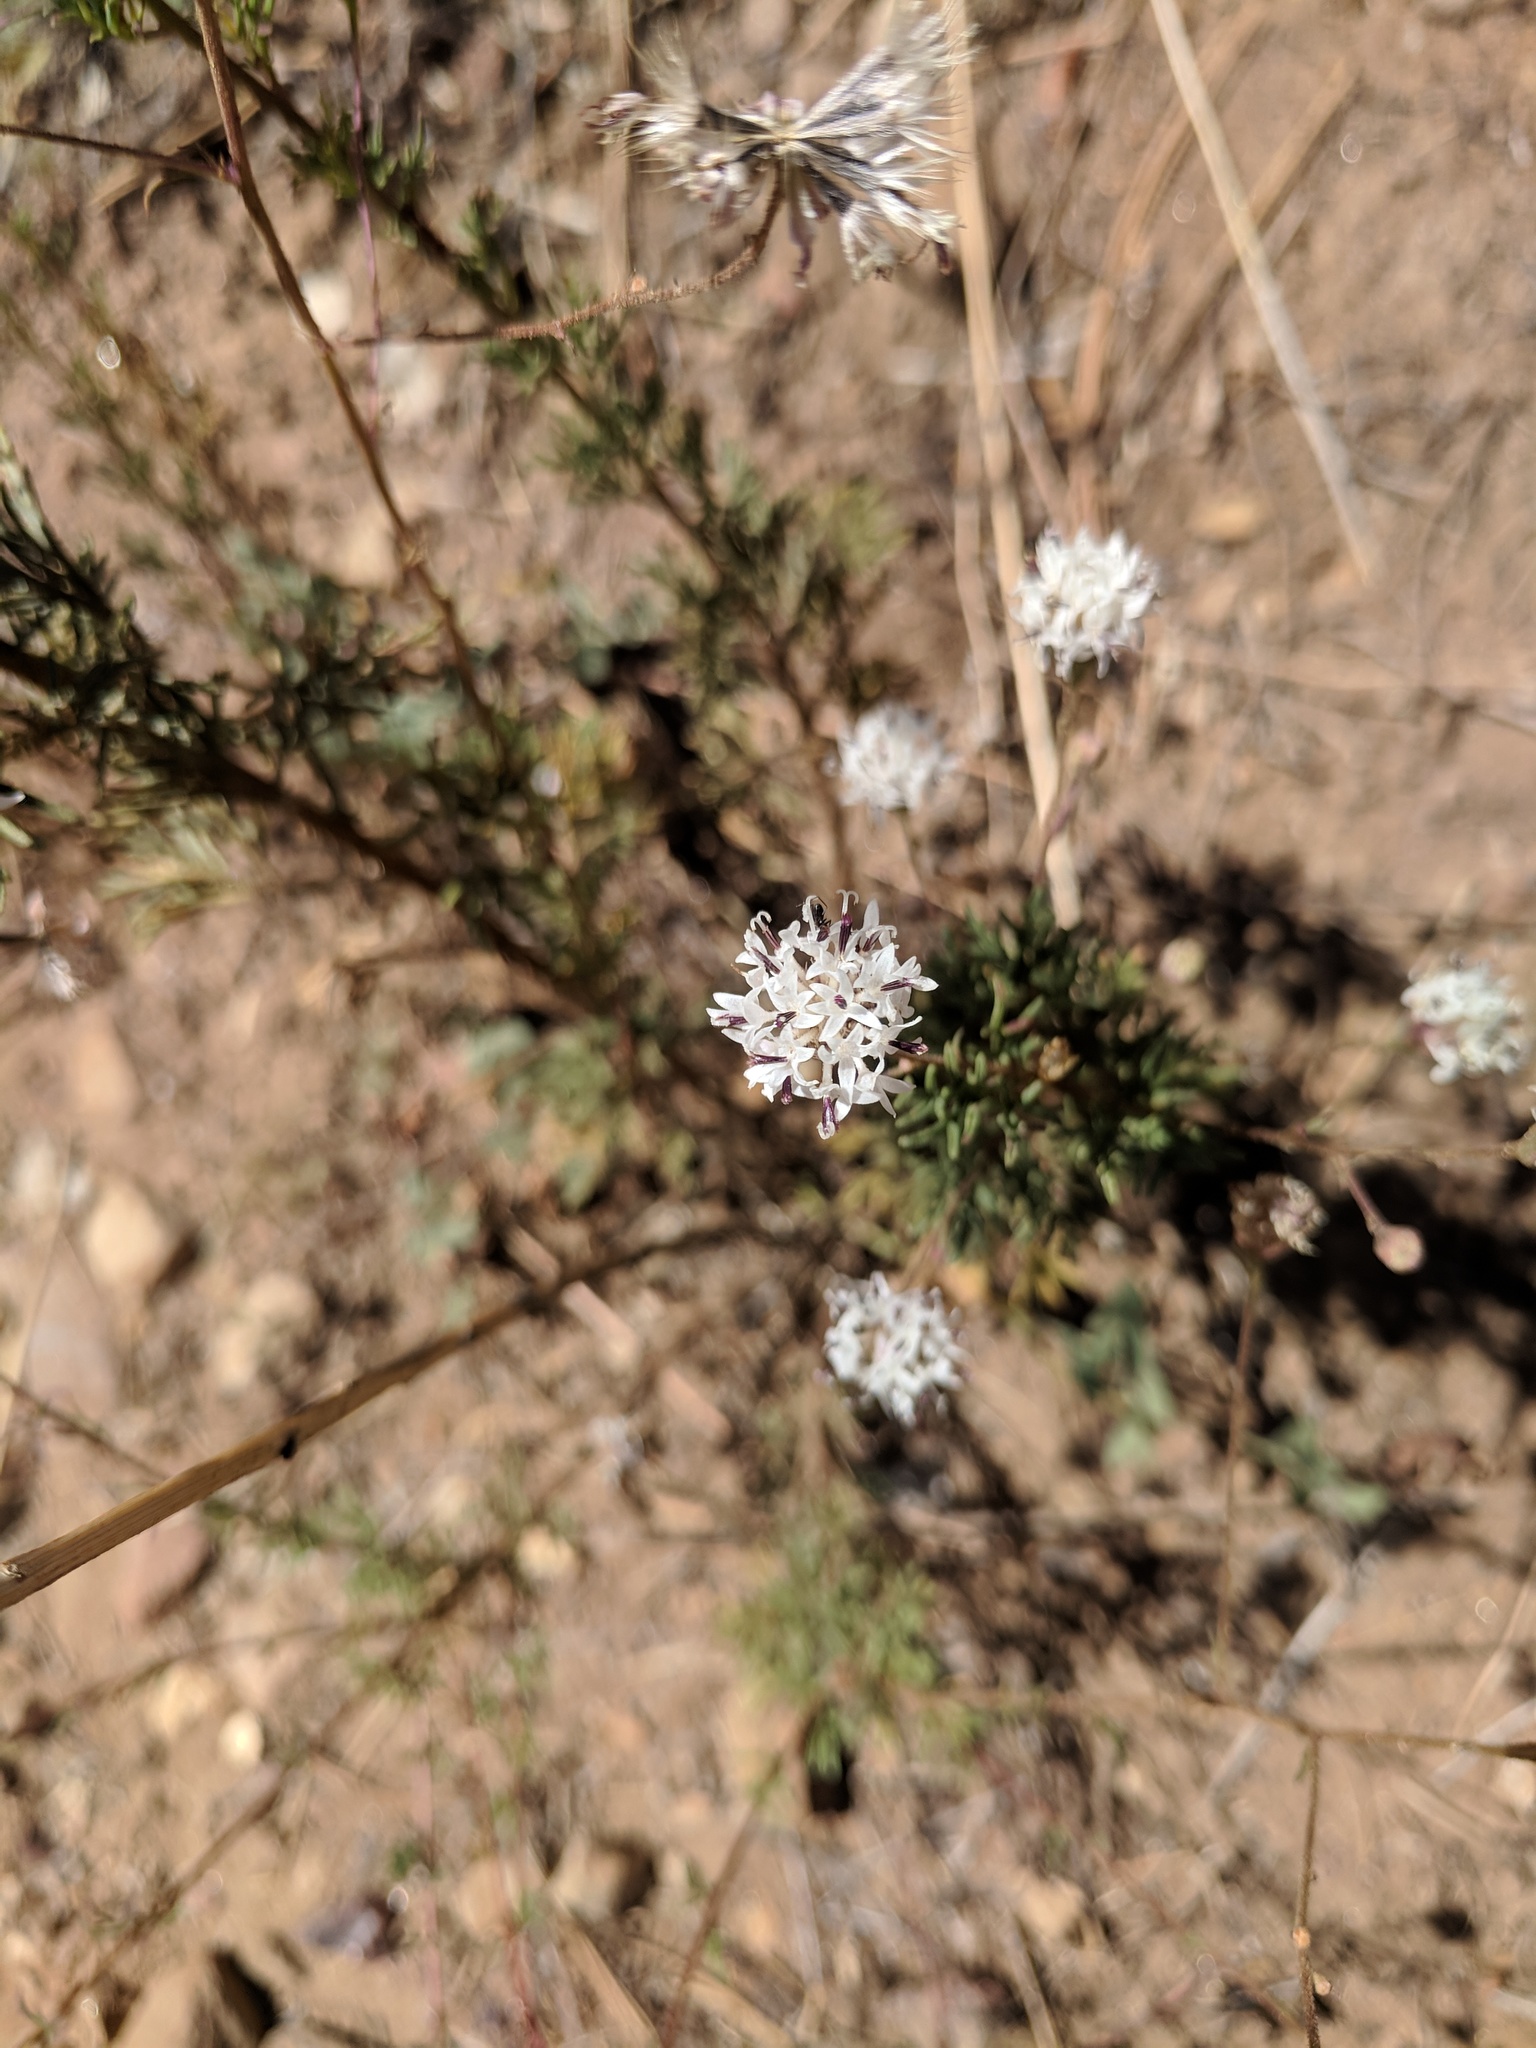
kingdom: Plantae
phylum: Tracheophyta
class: Magnoliopsida
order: Asterales
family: Asteraceae
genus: Hymenothrix
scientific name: Hymenothrix wrightii
